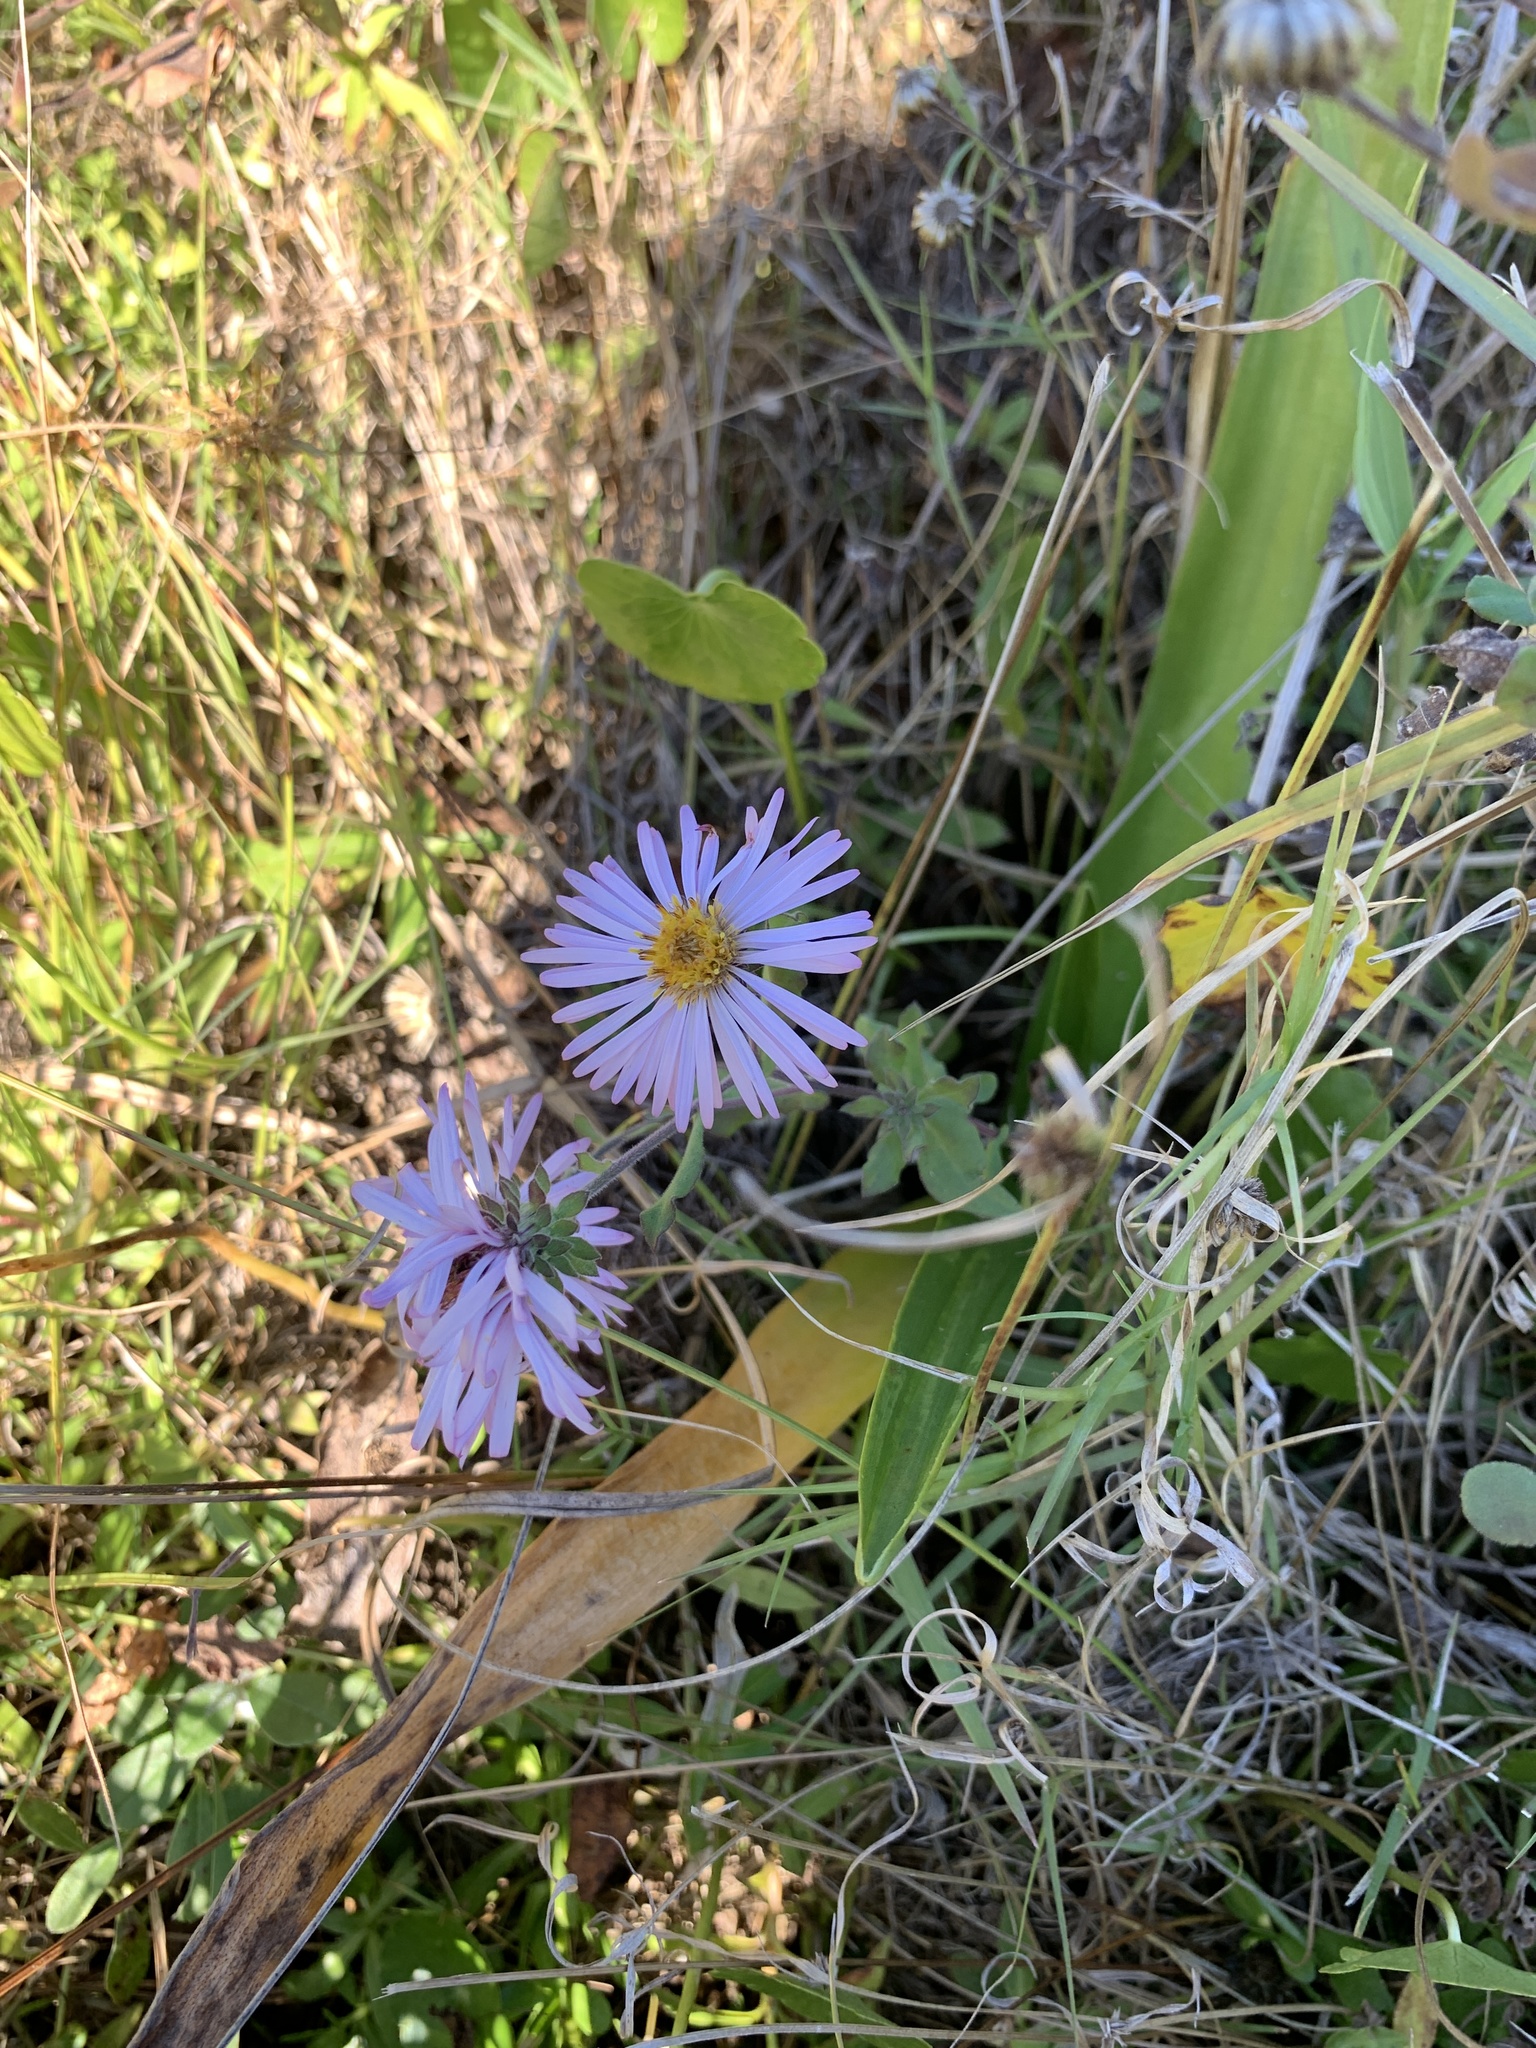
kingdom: Plantae
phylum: Tracheophyta
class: Magnoliopsida
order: Asterales
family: Asteraceae
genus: Ampelaster
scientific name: Ampelaster carolinianus
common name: Climbing aster
